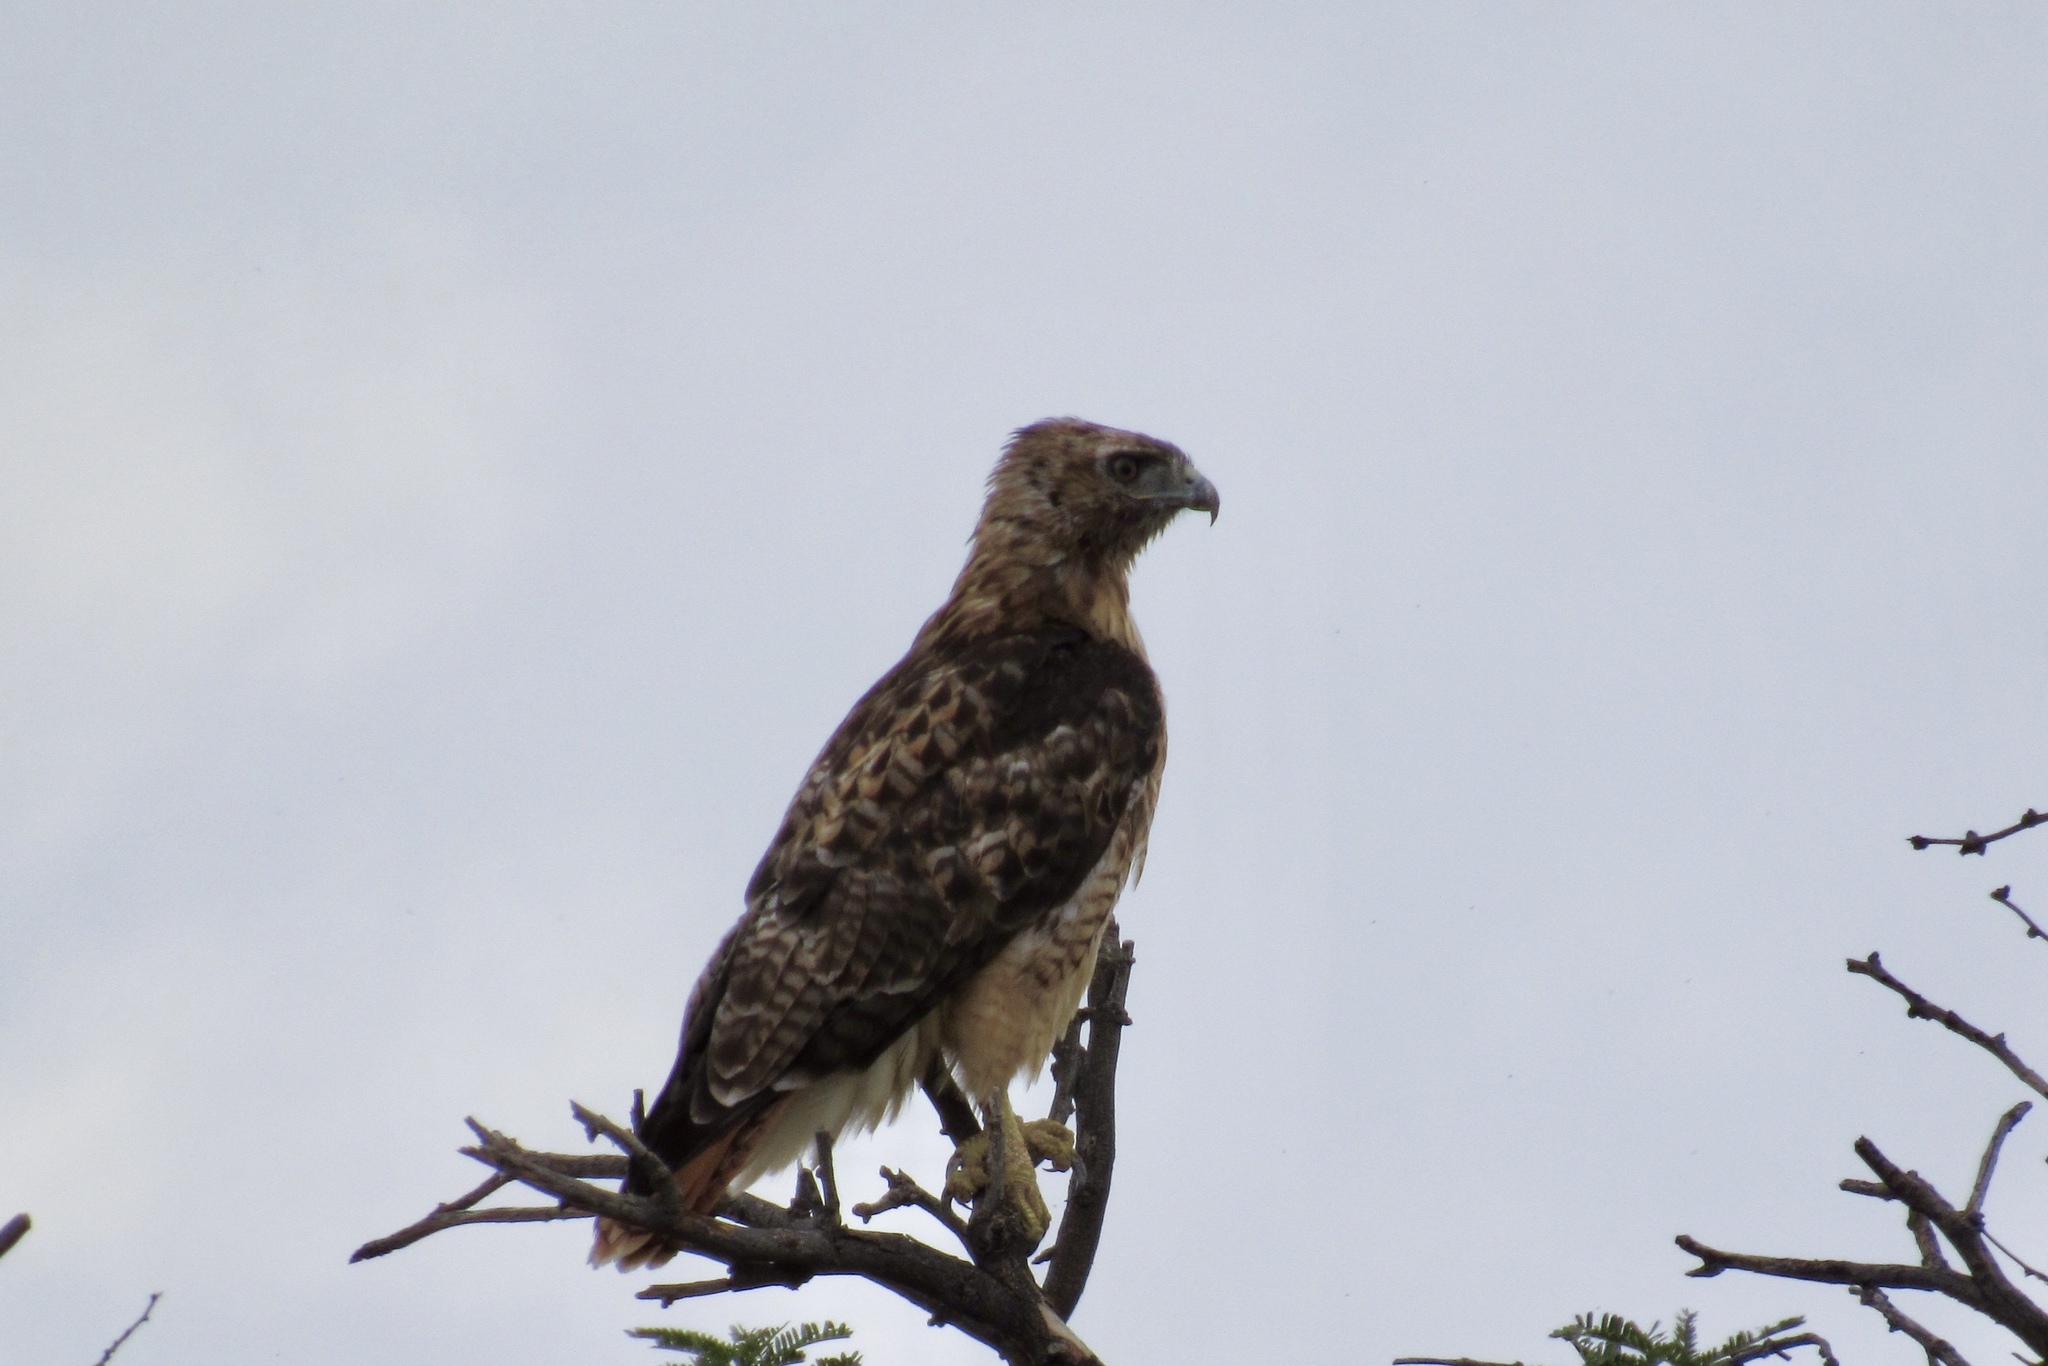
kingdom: Animalia
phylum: Chordata
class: Aves
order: Accipitriformes
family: Accipitridae
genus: Buteo
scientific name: Buteo jamaicensis
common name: Red-tailed hawk
